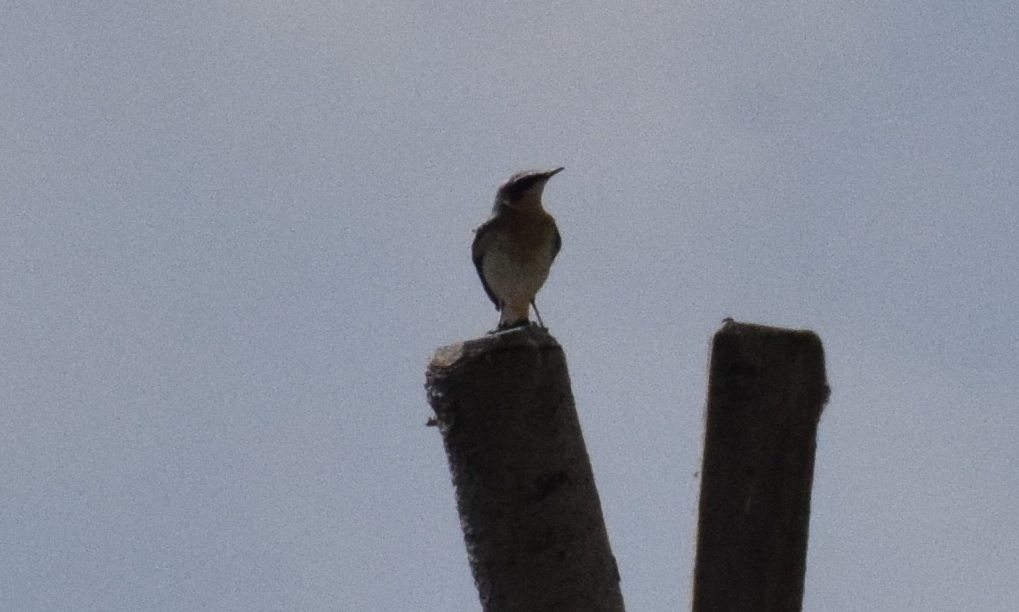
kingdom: Animalia
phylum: Chordata
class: Aves
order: Passeriformes
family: Muscicapidae
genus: Oenanthe
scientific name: Oenanthe oenanthe
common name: Northern wheatear
